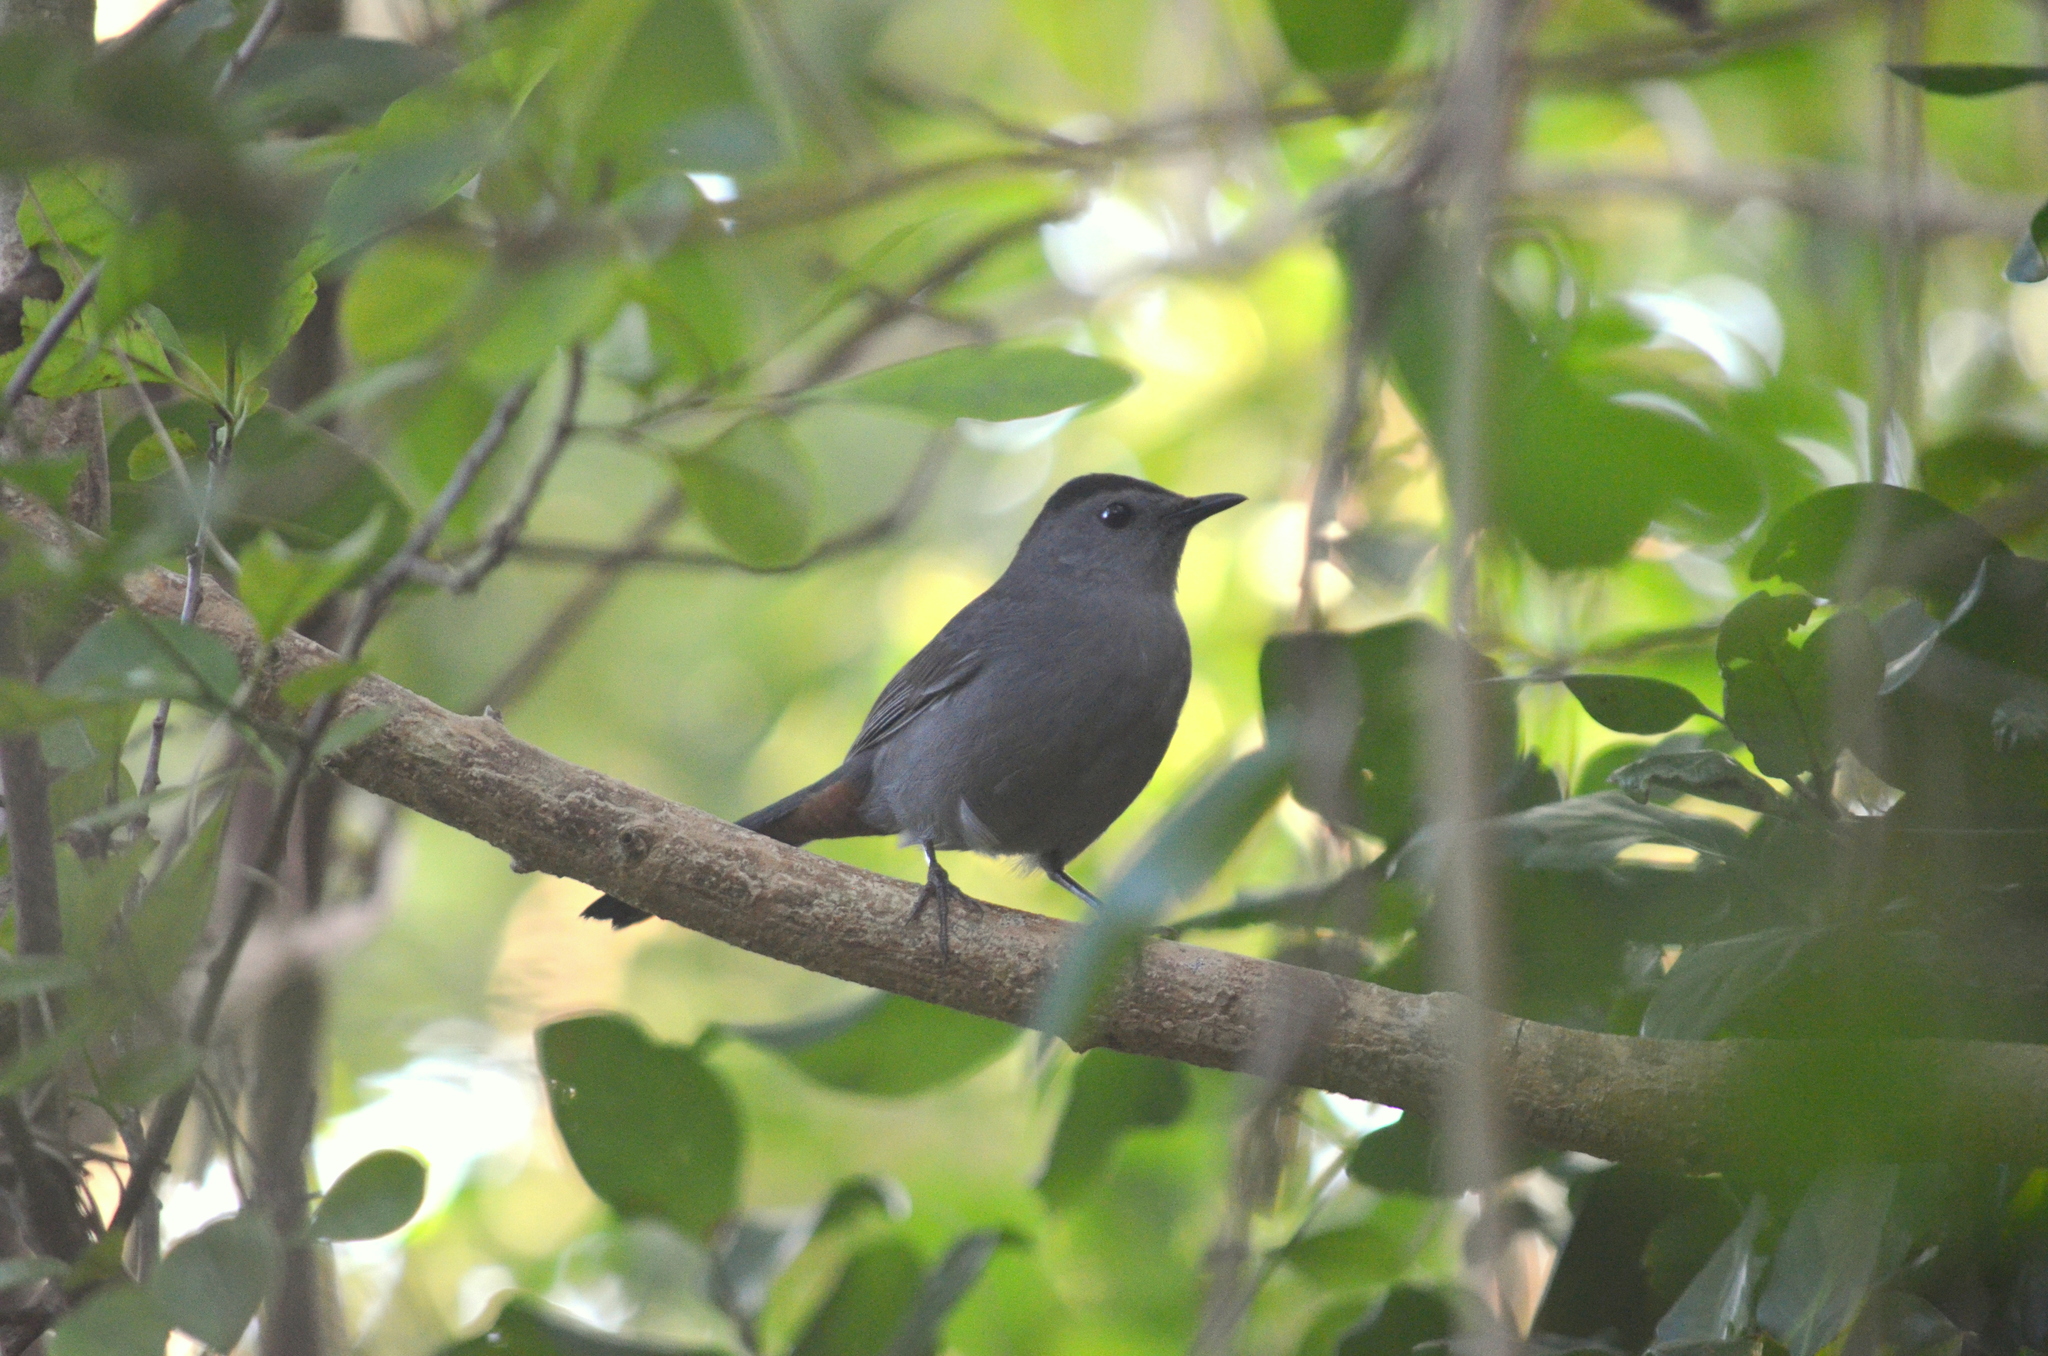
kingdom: Animalia
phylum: Chordata
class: Aves
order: Passeriformes
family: Mimidae
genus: Dumetella
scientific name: Dumetella carolinensis
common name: Gray catbird
